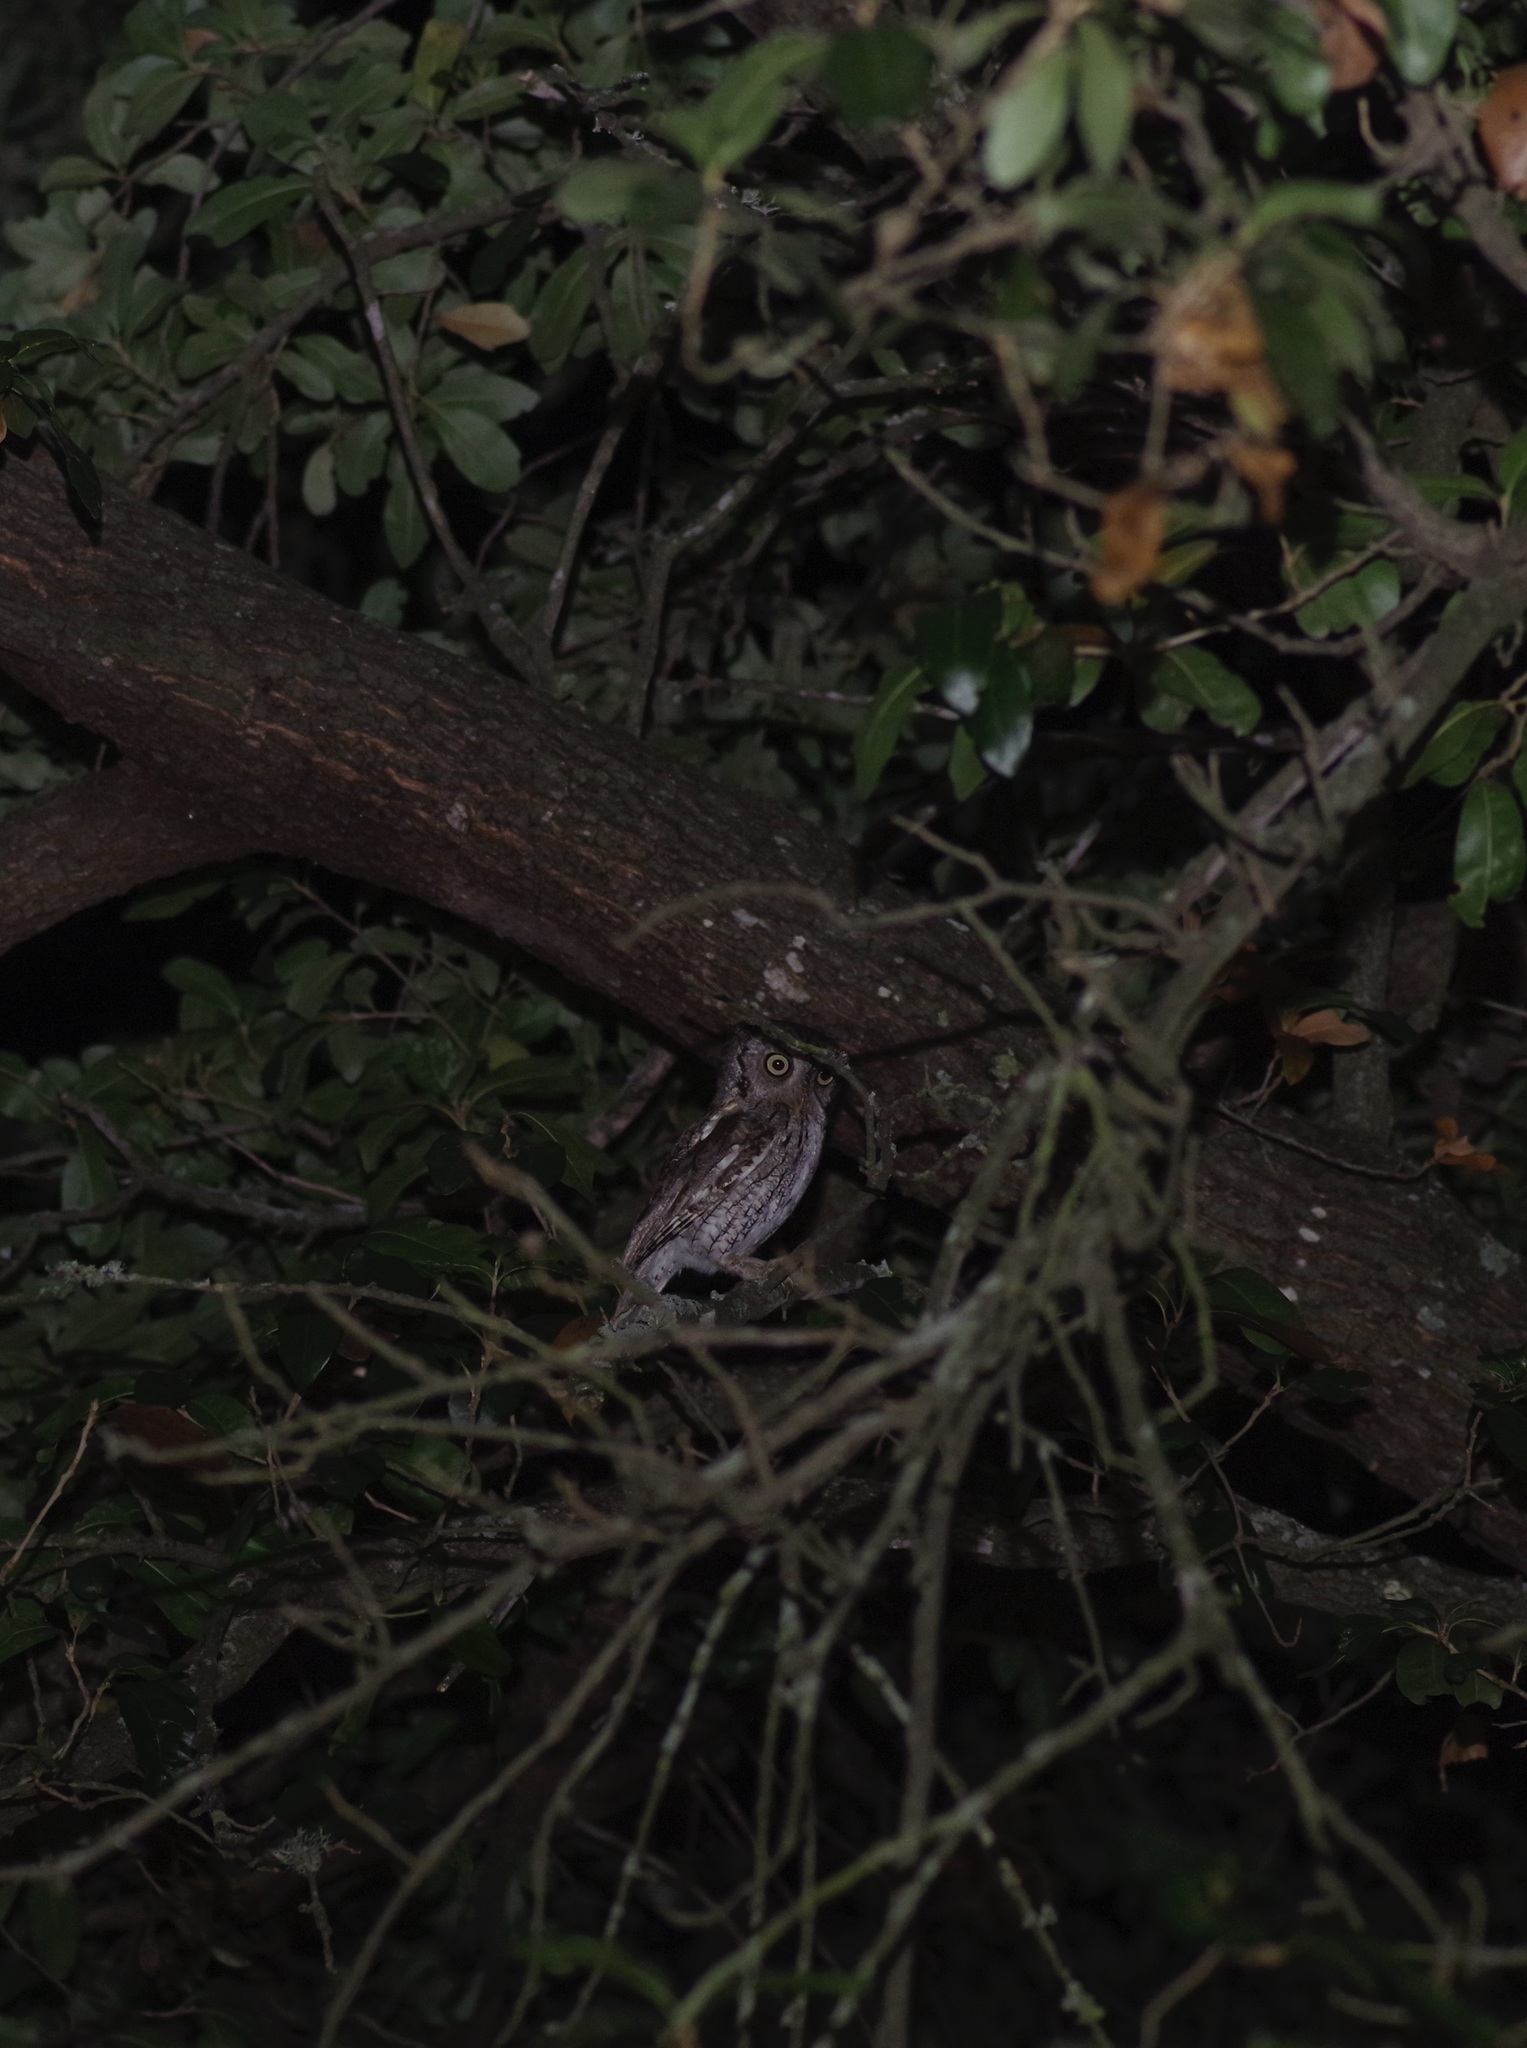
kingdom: Animalia
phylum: Chordata
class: Aves
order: Strigiformes
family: Strigidae
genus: Megascops
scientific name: Megascops asio
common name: Eastern screech-owl
